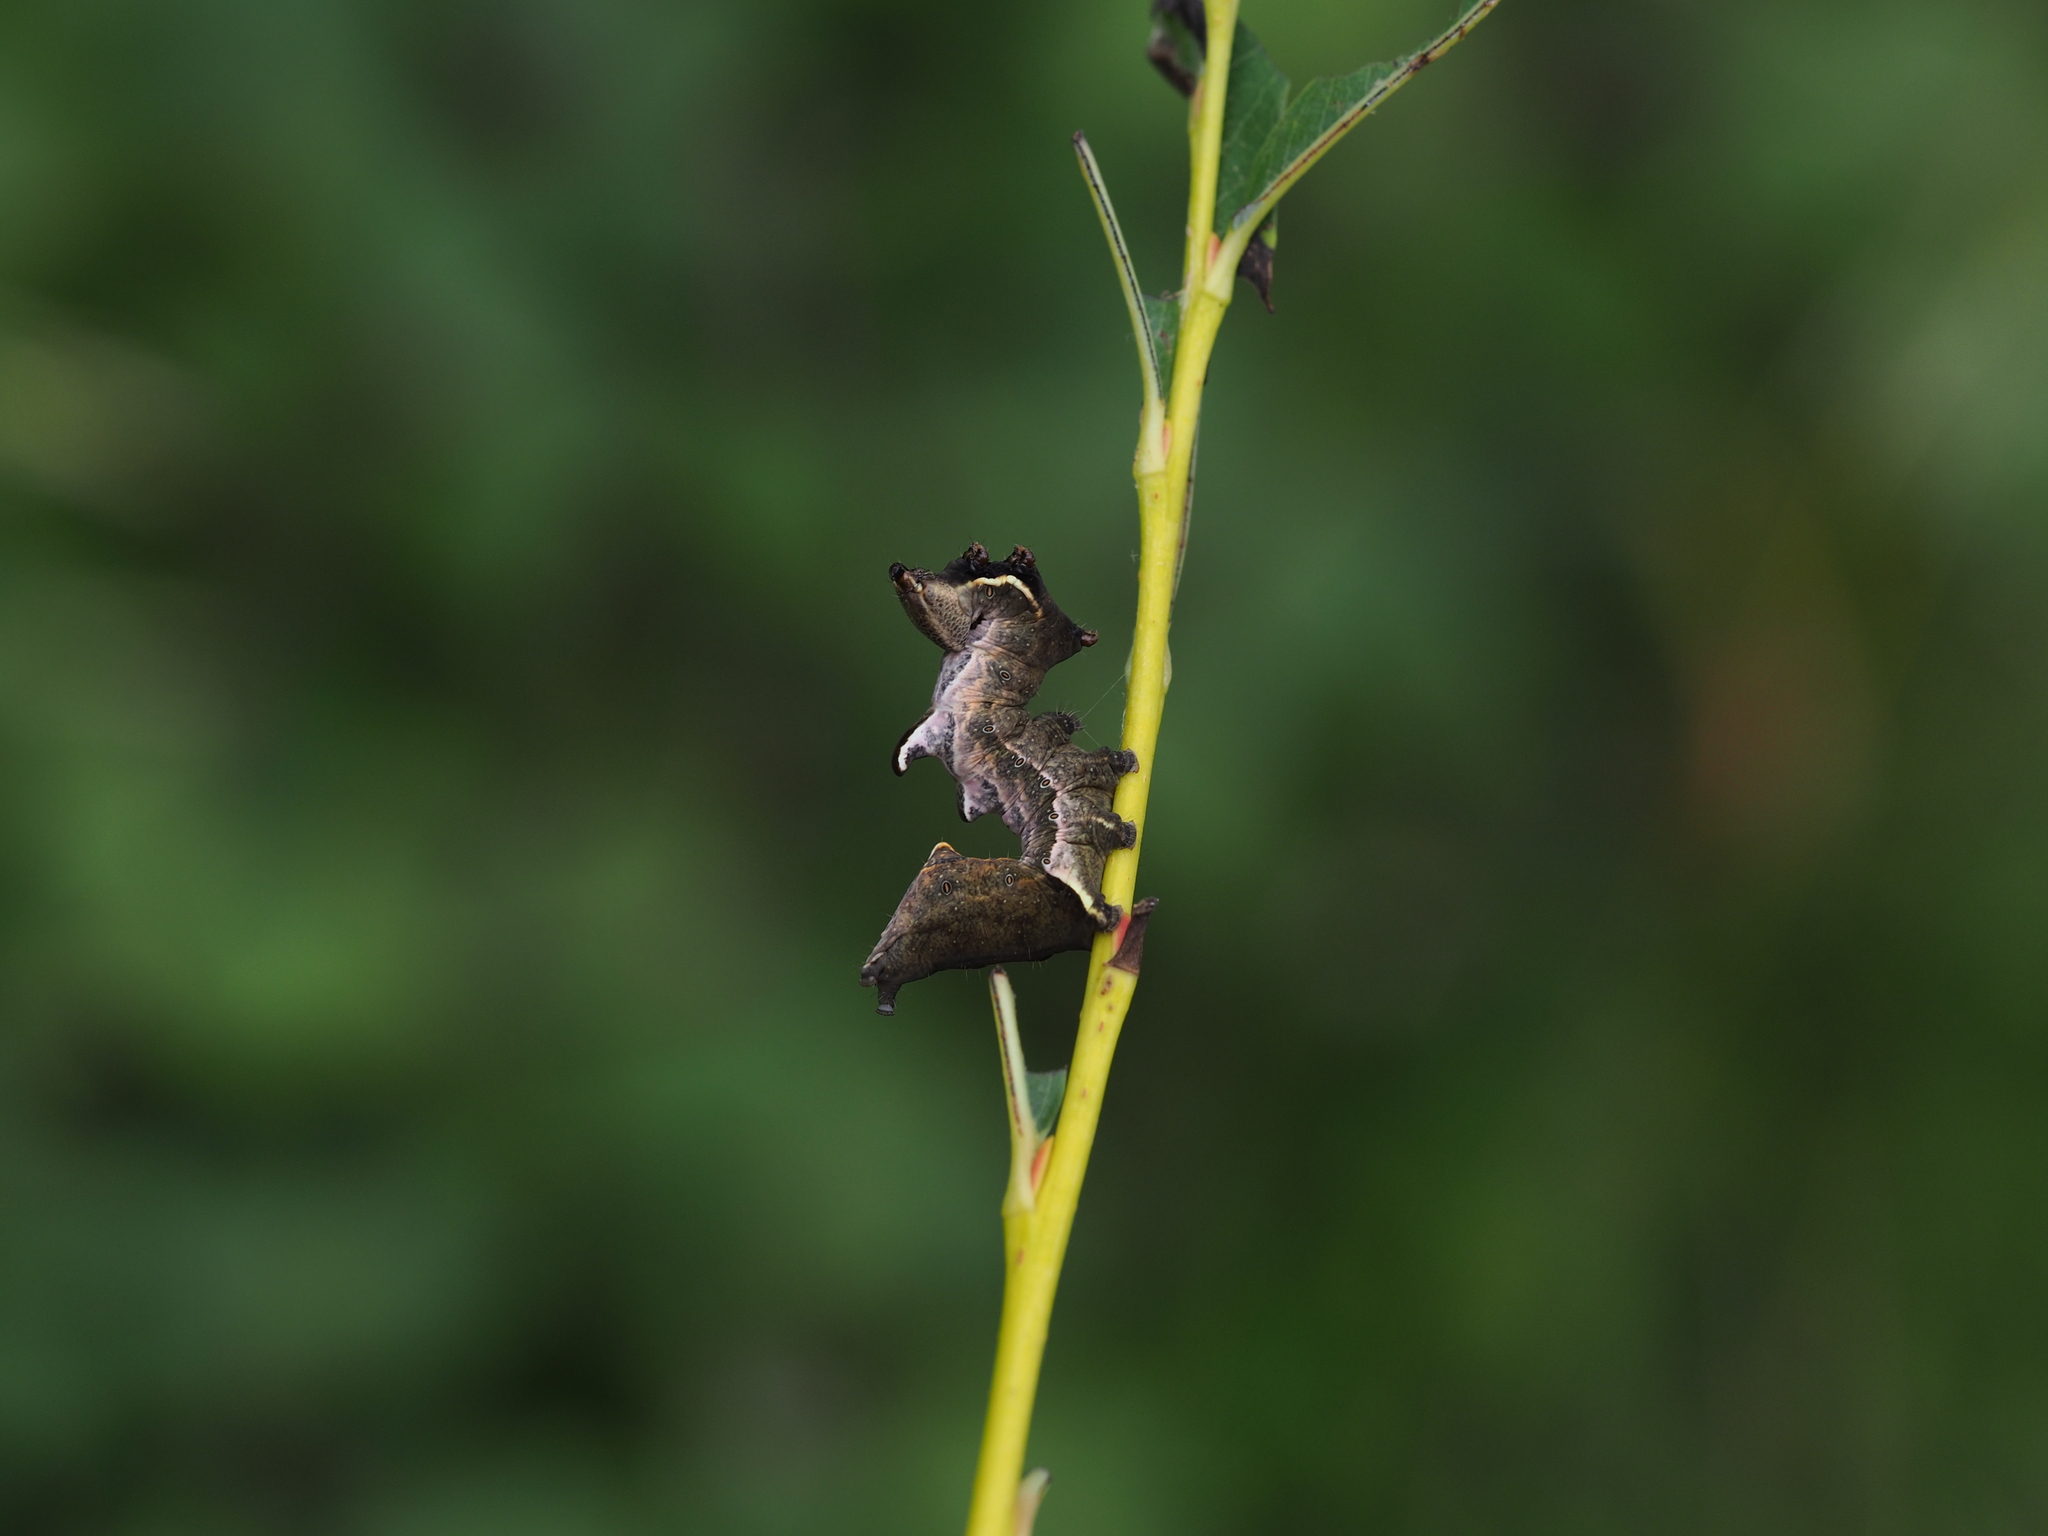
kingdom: Animalia
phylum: Arthropoda
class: Insecta
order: Lepidoptera
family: Notodontidae
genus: Notodonta
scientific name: Notodonta ziczac
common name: Pebble prominent
